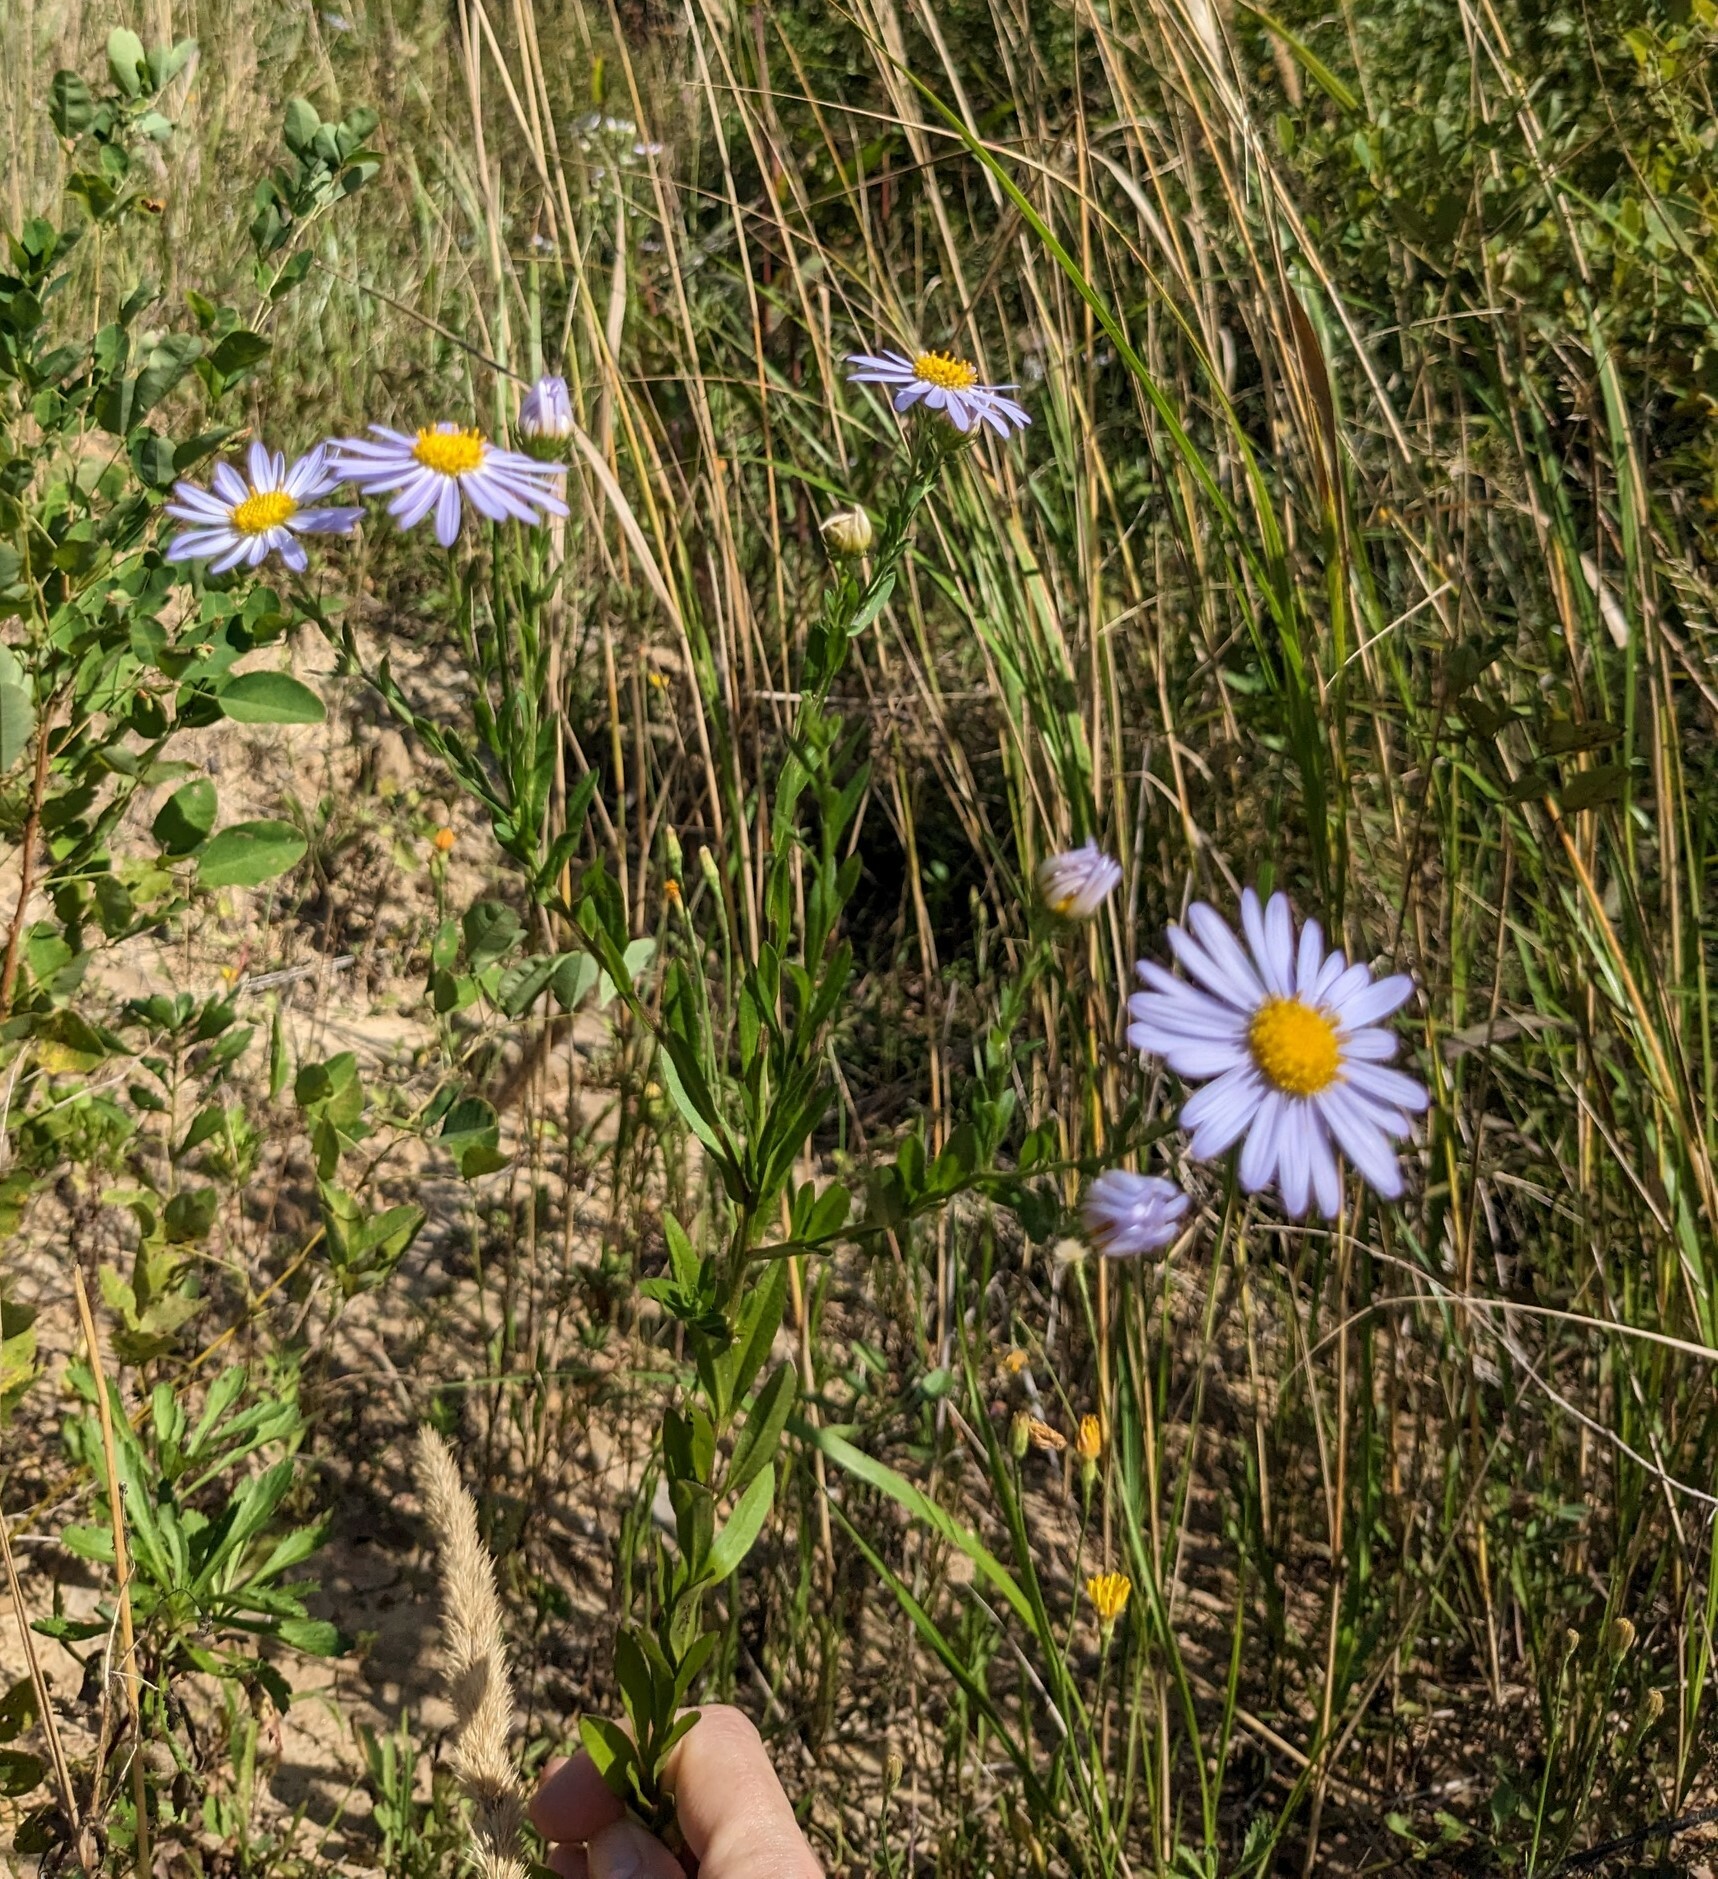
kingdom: Plantae
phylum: Tracheophyta
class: Magnoliopsida
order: Asterales
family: Asteraceae
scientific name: Asteraceae
